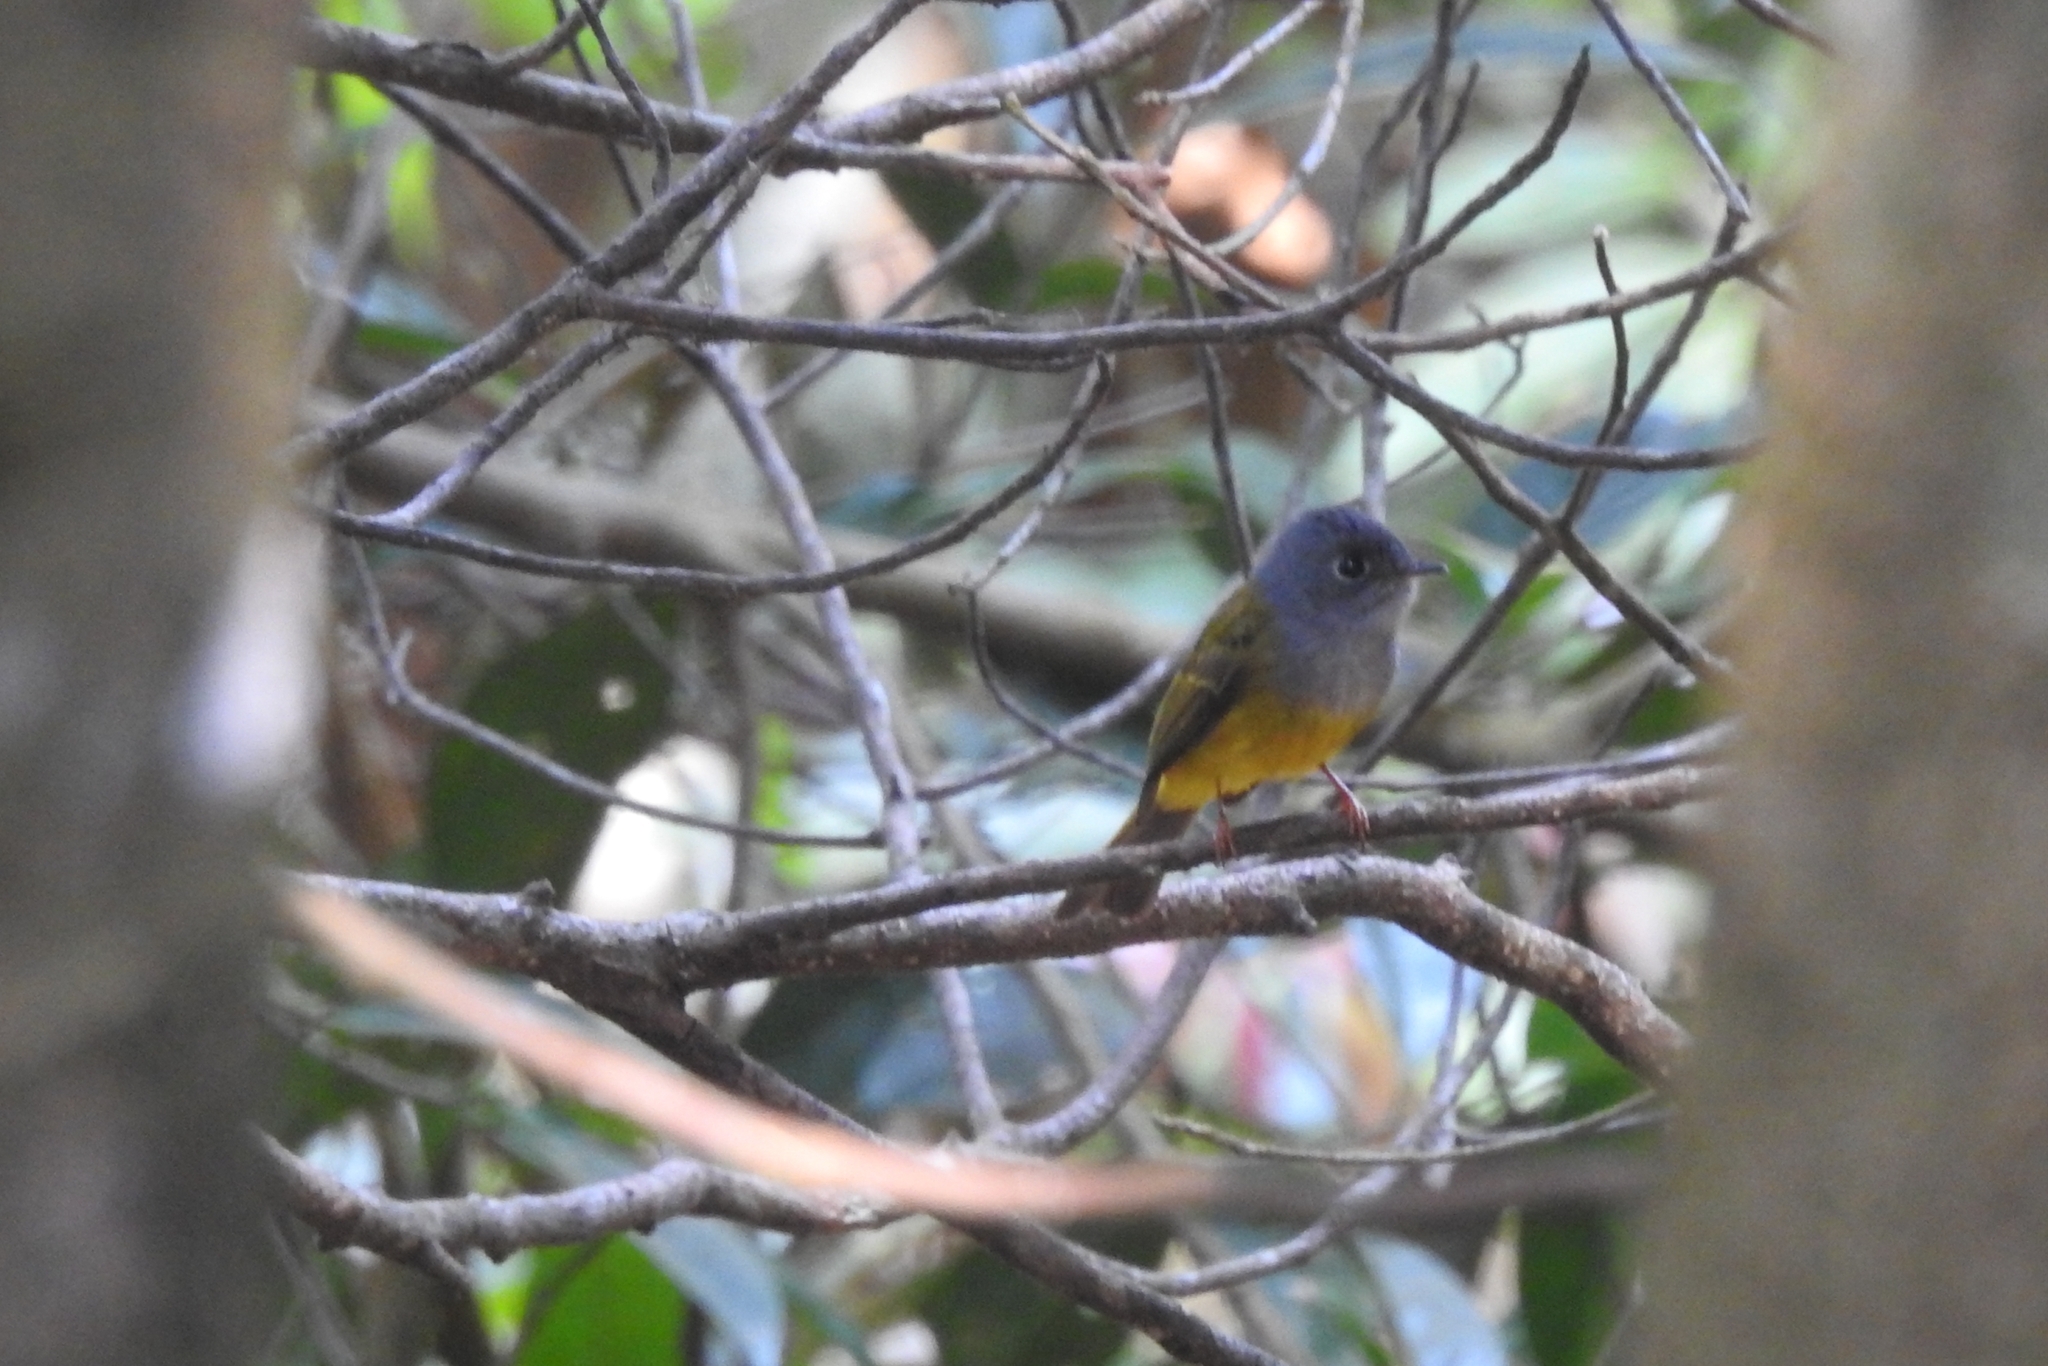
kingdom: Animalia
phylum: Chordata
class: Aves
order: Passeriformes
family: Stenostiridae
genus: Culicicapa
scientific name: Culicicapa ceylonensis
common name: Grey-headed canary-flycatcher
